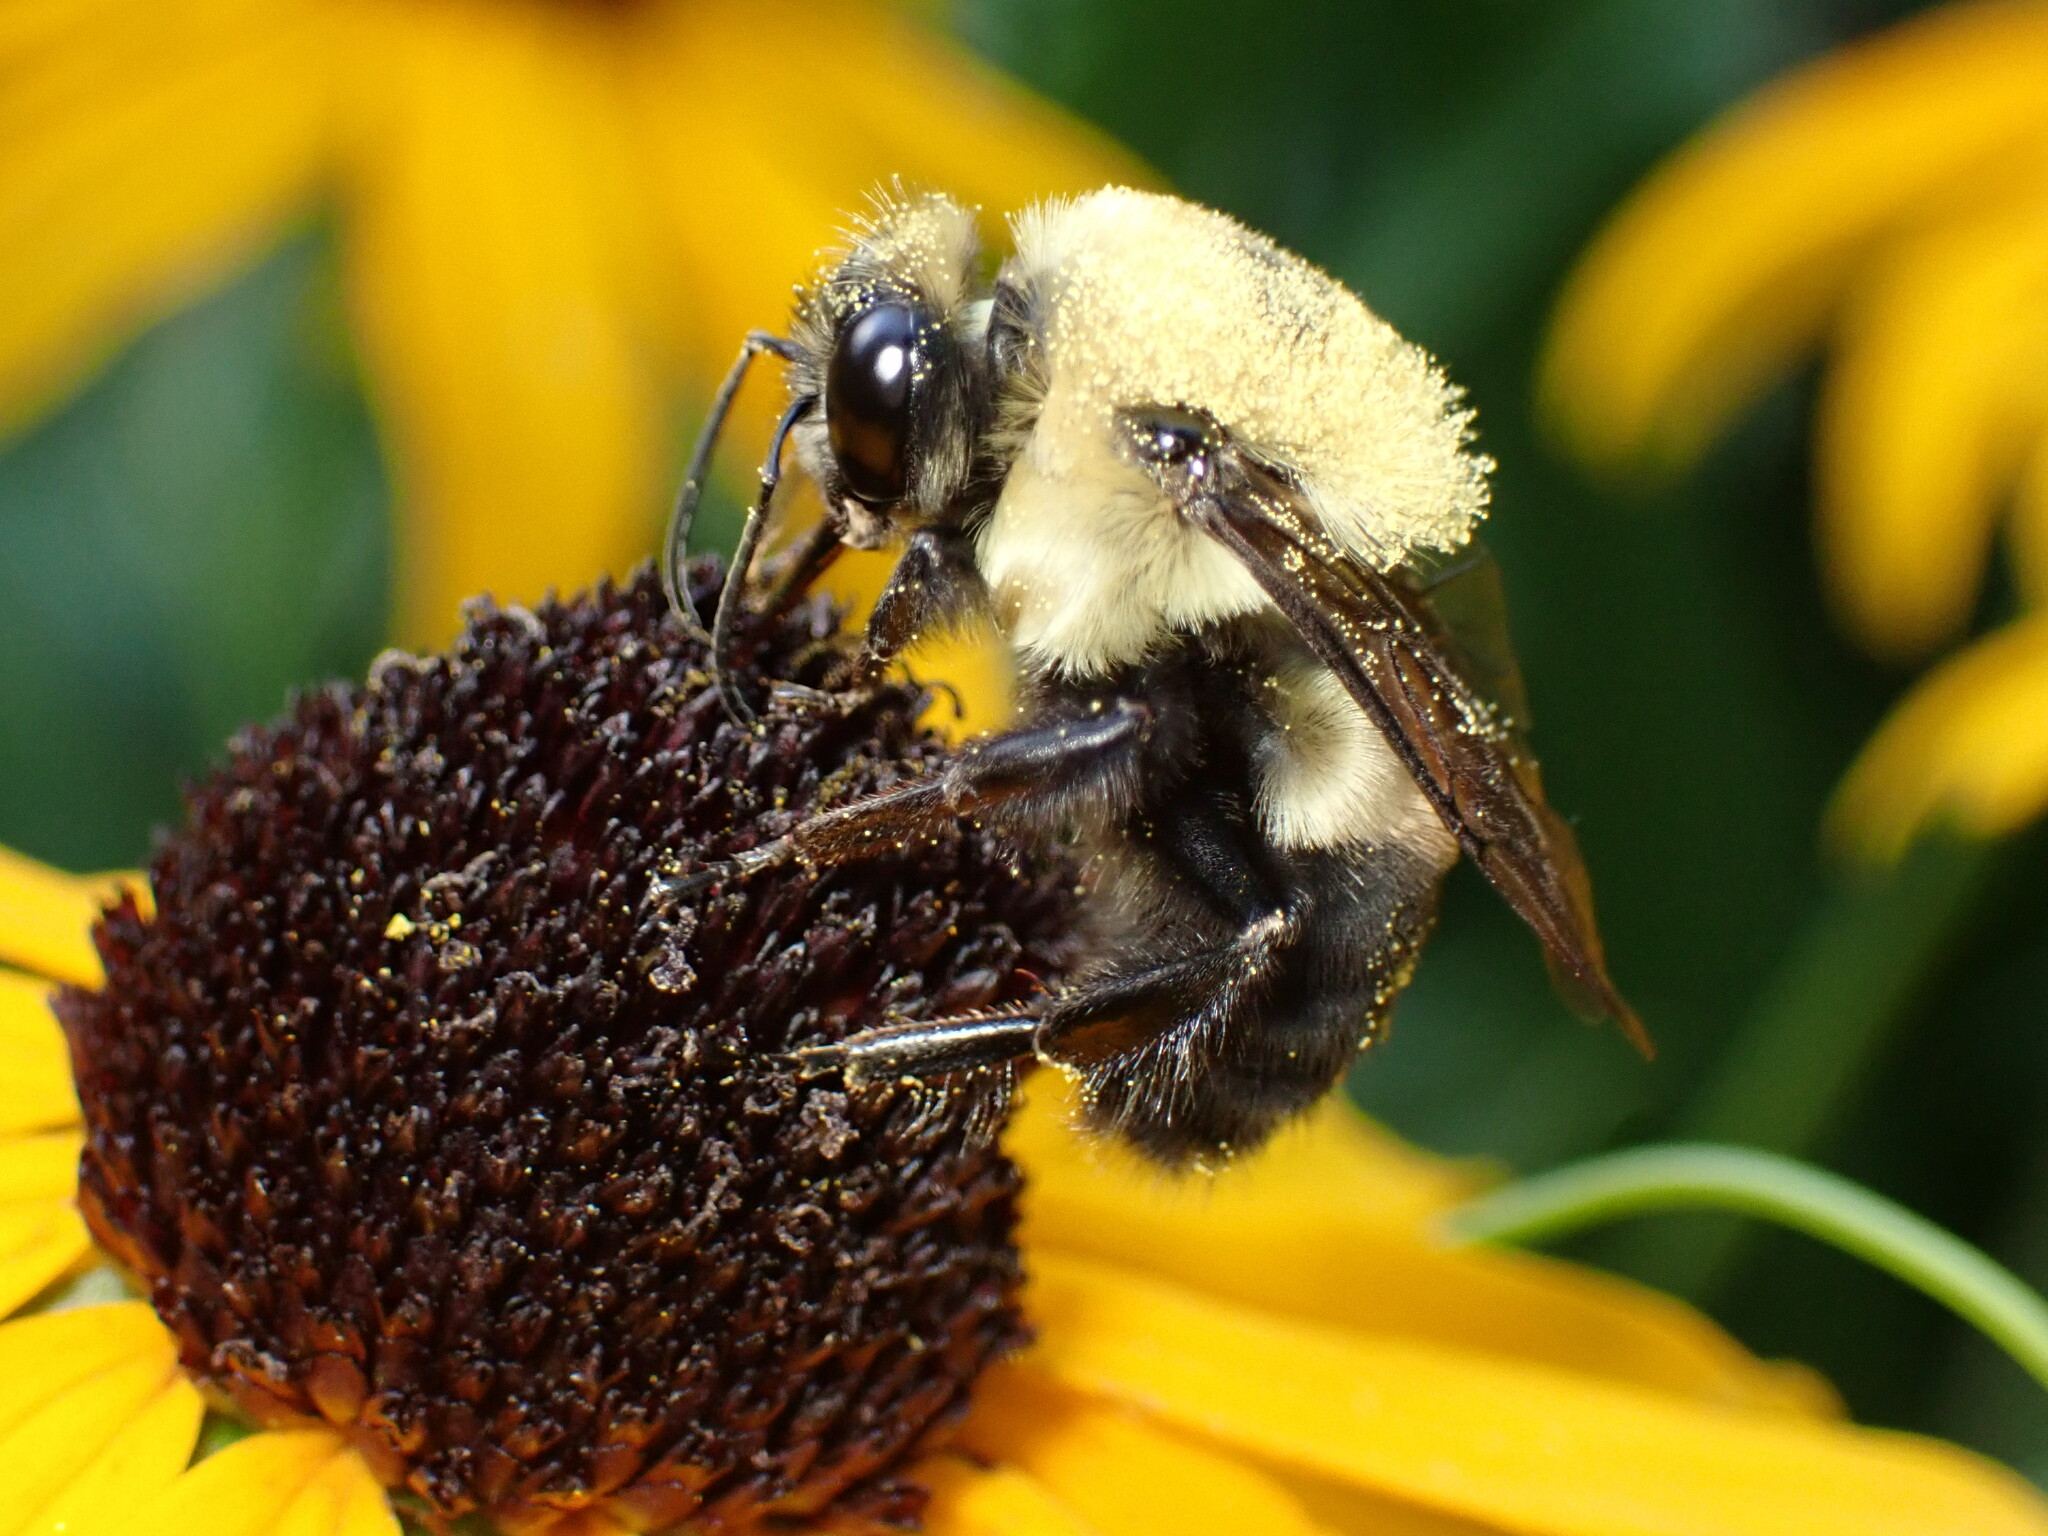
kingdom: Animalia
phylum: Arthropoda
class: Insecta
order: Hymenoptera
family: Apidae
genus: Bombus
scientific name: Bombus griseocollis
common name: Brown-belted bumble bee
